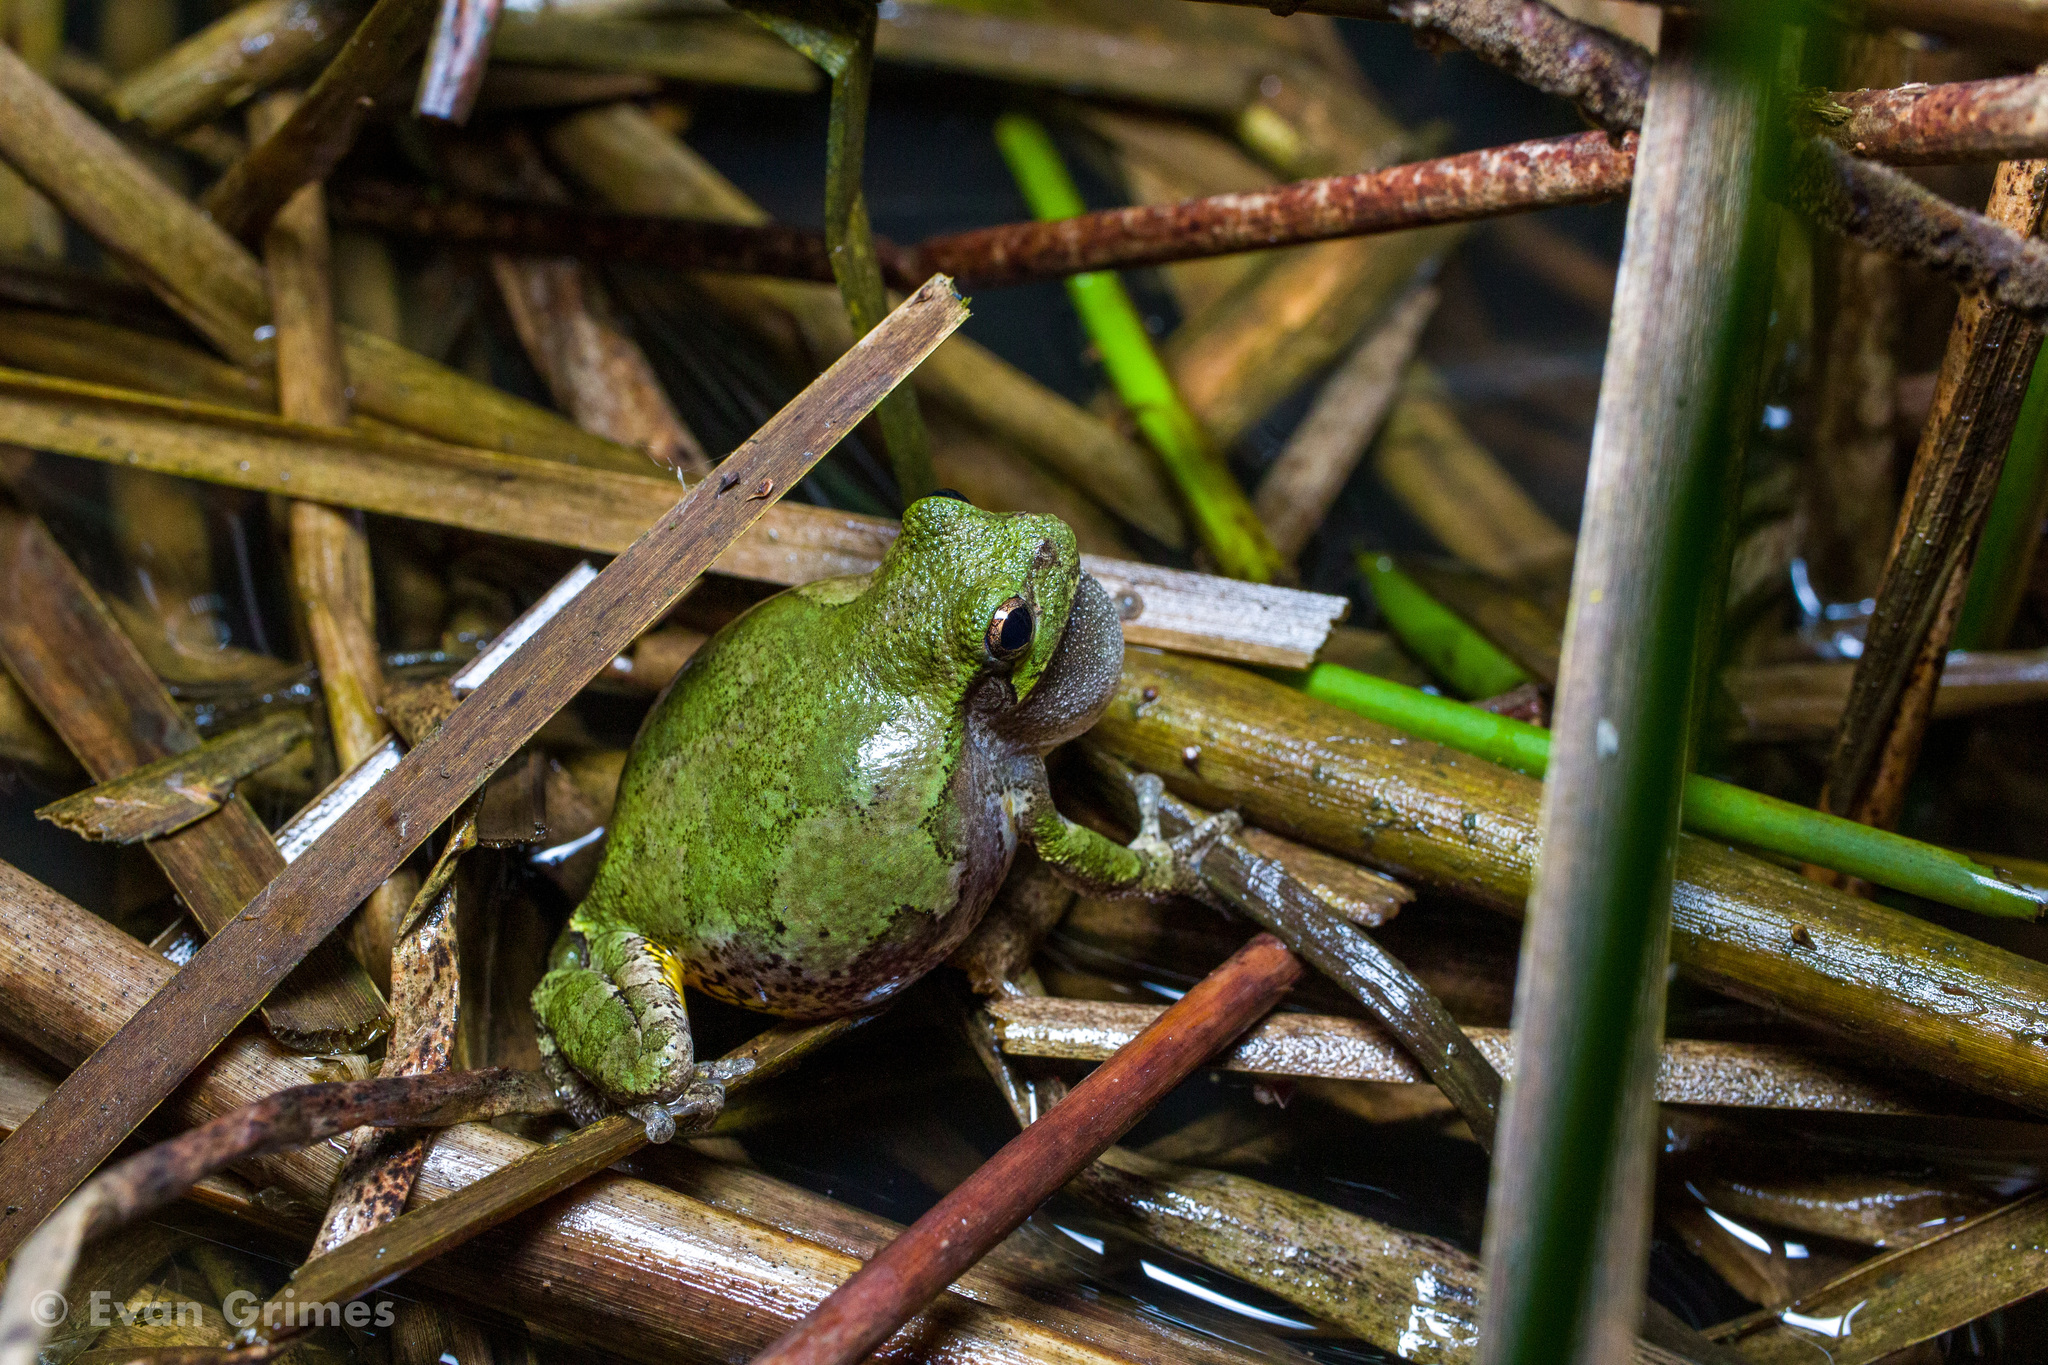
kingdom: Animalia
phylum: Chordata
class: Amphibia
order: Anura
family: Hylidae
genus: Dryophytes
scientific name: Dryophytes versicolor
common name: Gray treefrog
